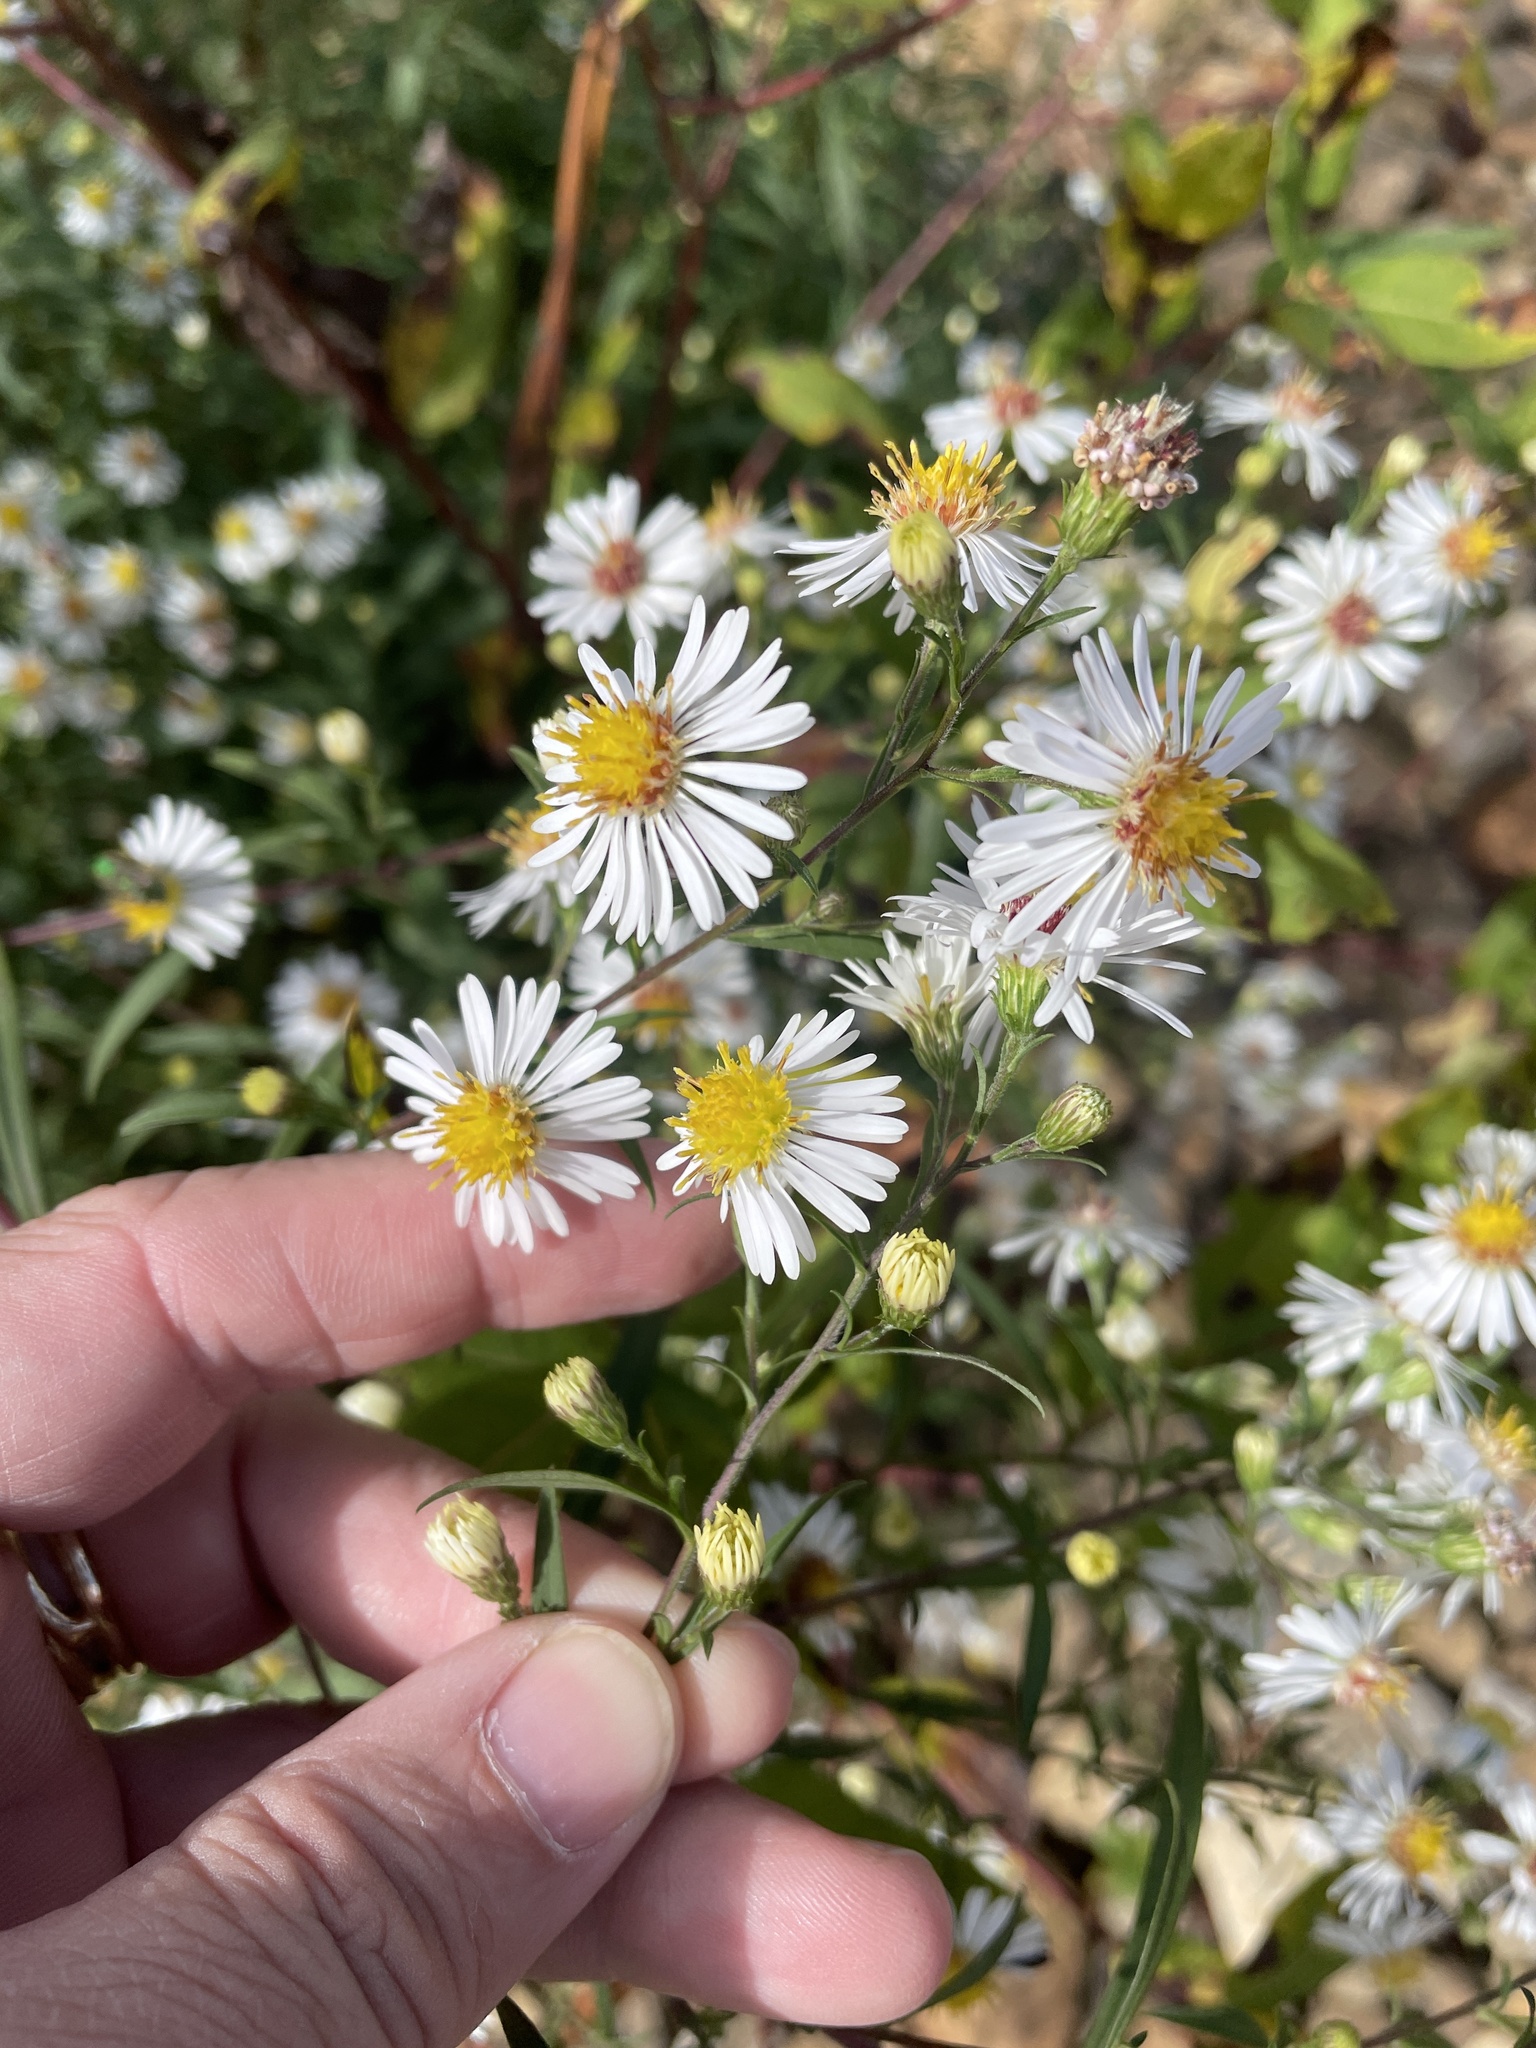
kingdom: Plantae
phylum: Tracheophyta
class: Magnoliopsida
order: Asterales
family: Asteraceae
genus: Symphyotrichum
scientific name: Symphyotrichum lanceolatum
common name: Panicled aster
